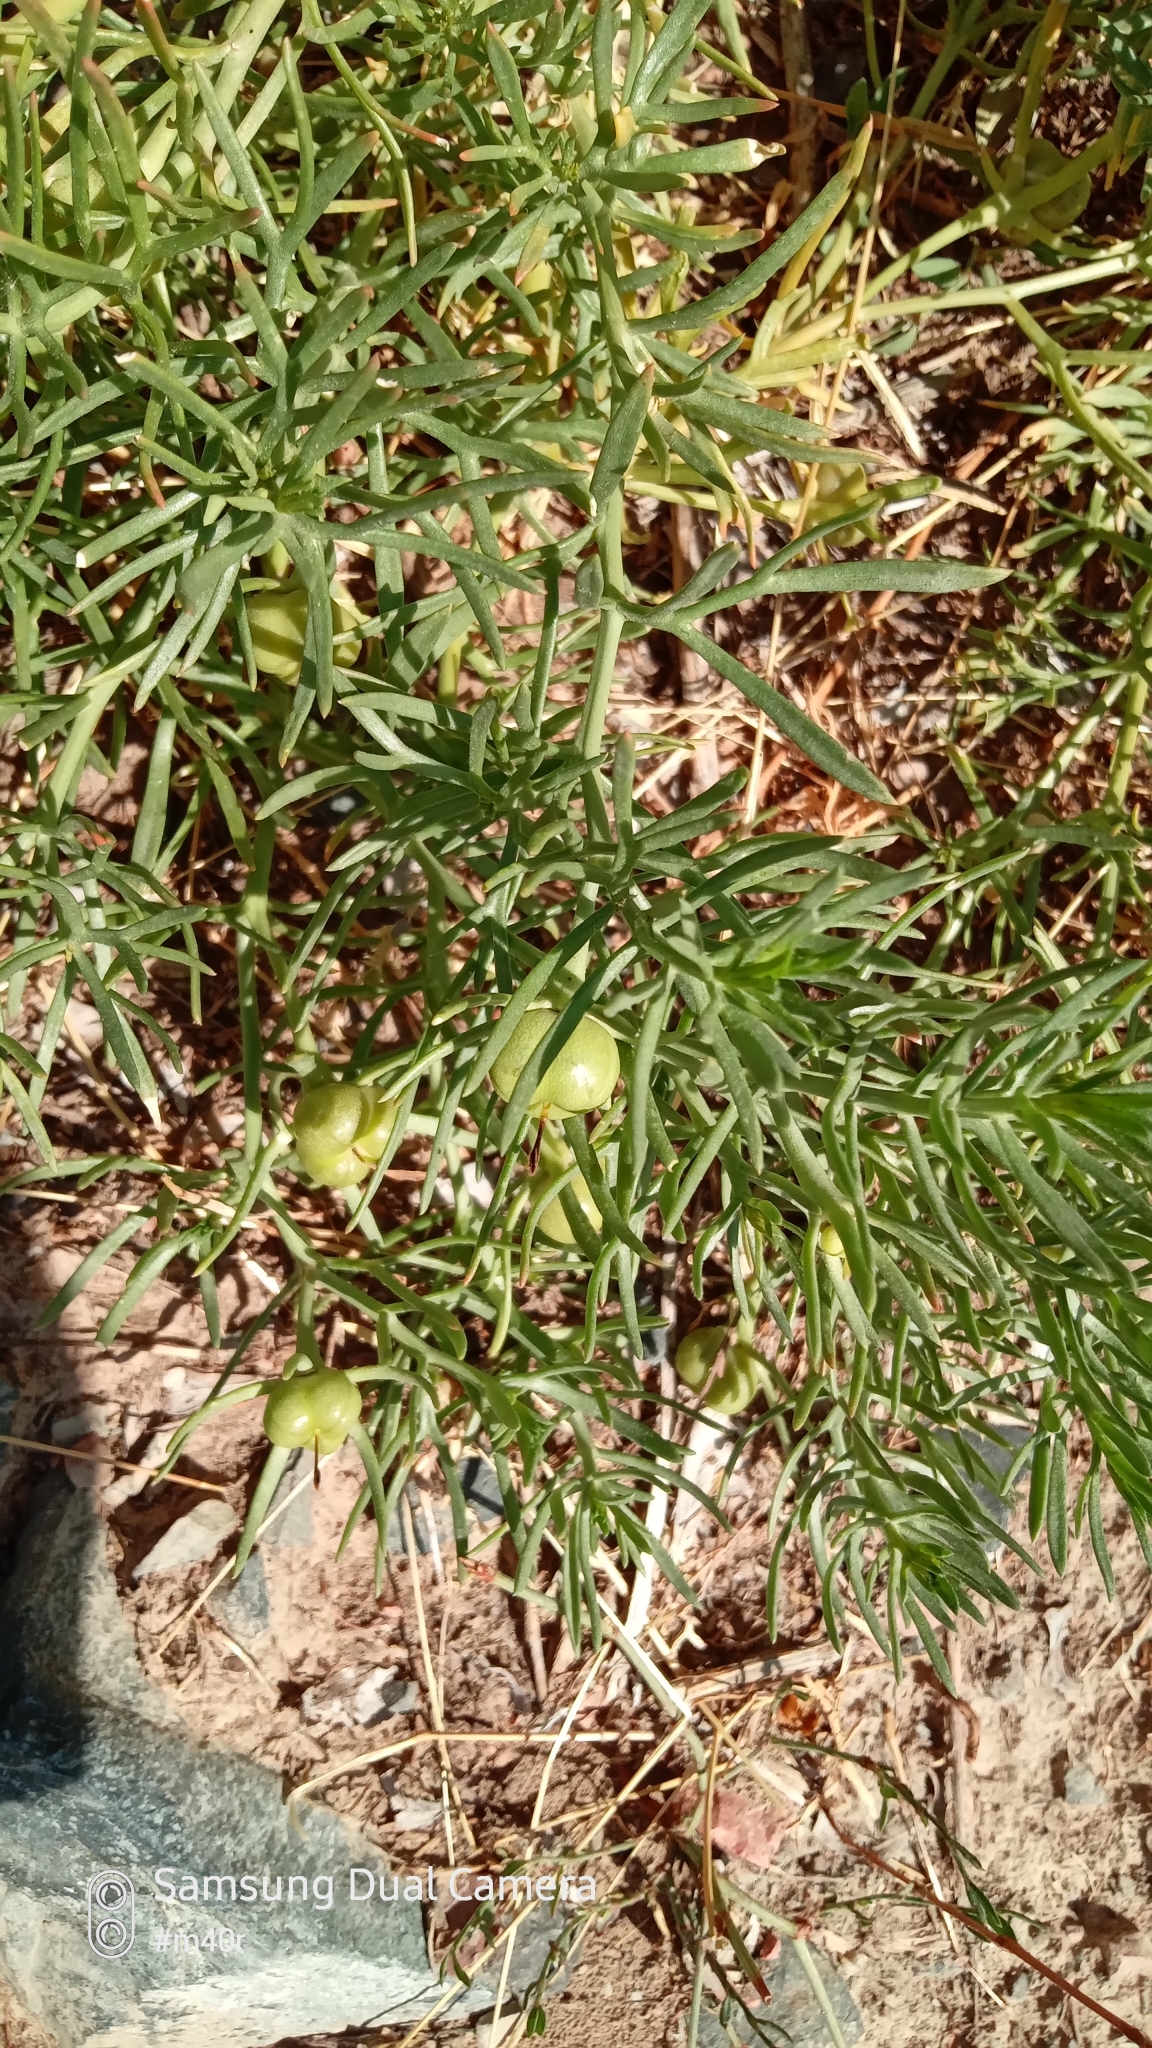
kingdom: Plantae
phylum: Tracheophyta
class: Magnoliopsida
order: Sapindales
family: Tetradiclidaceae
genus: Peganum
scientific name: Peganum harmala
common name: Harmal peganum
